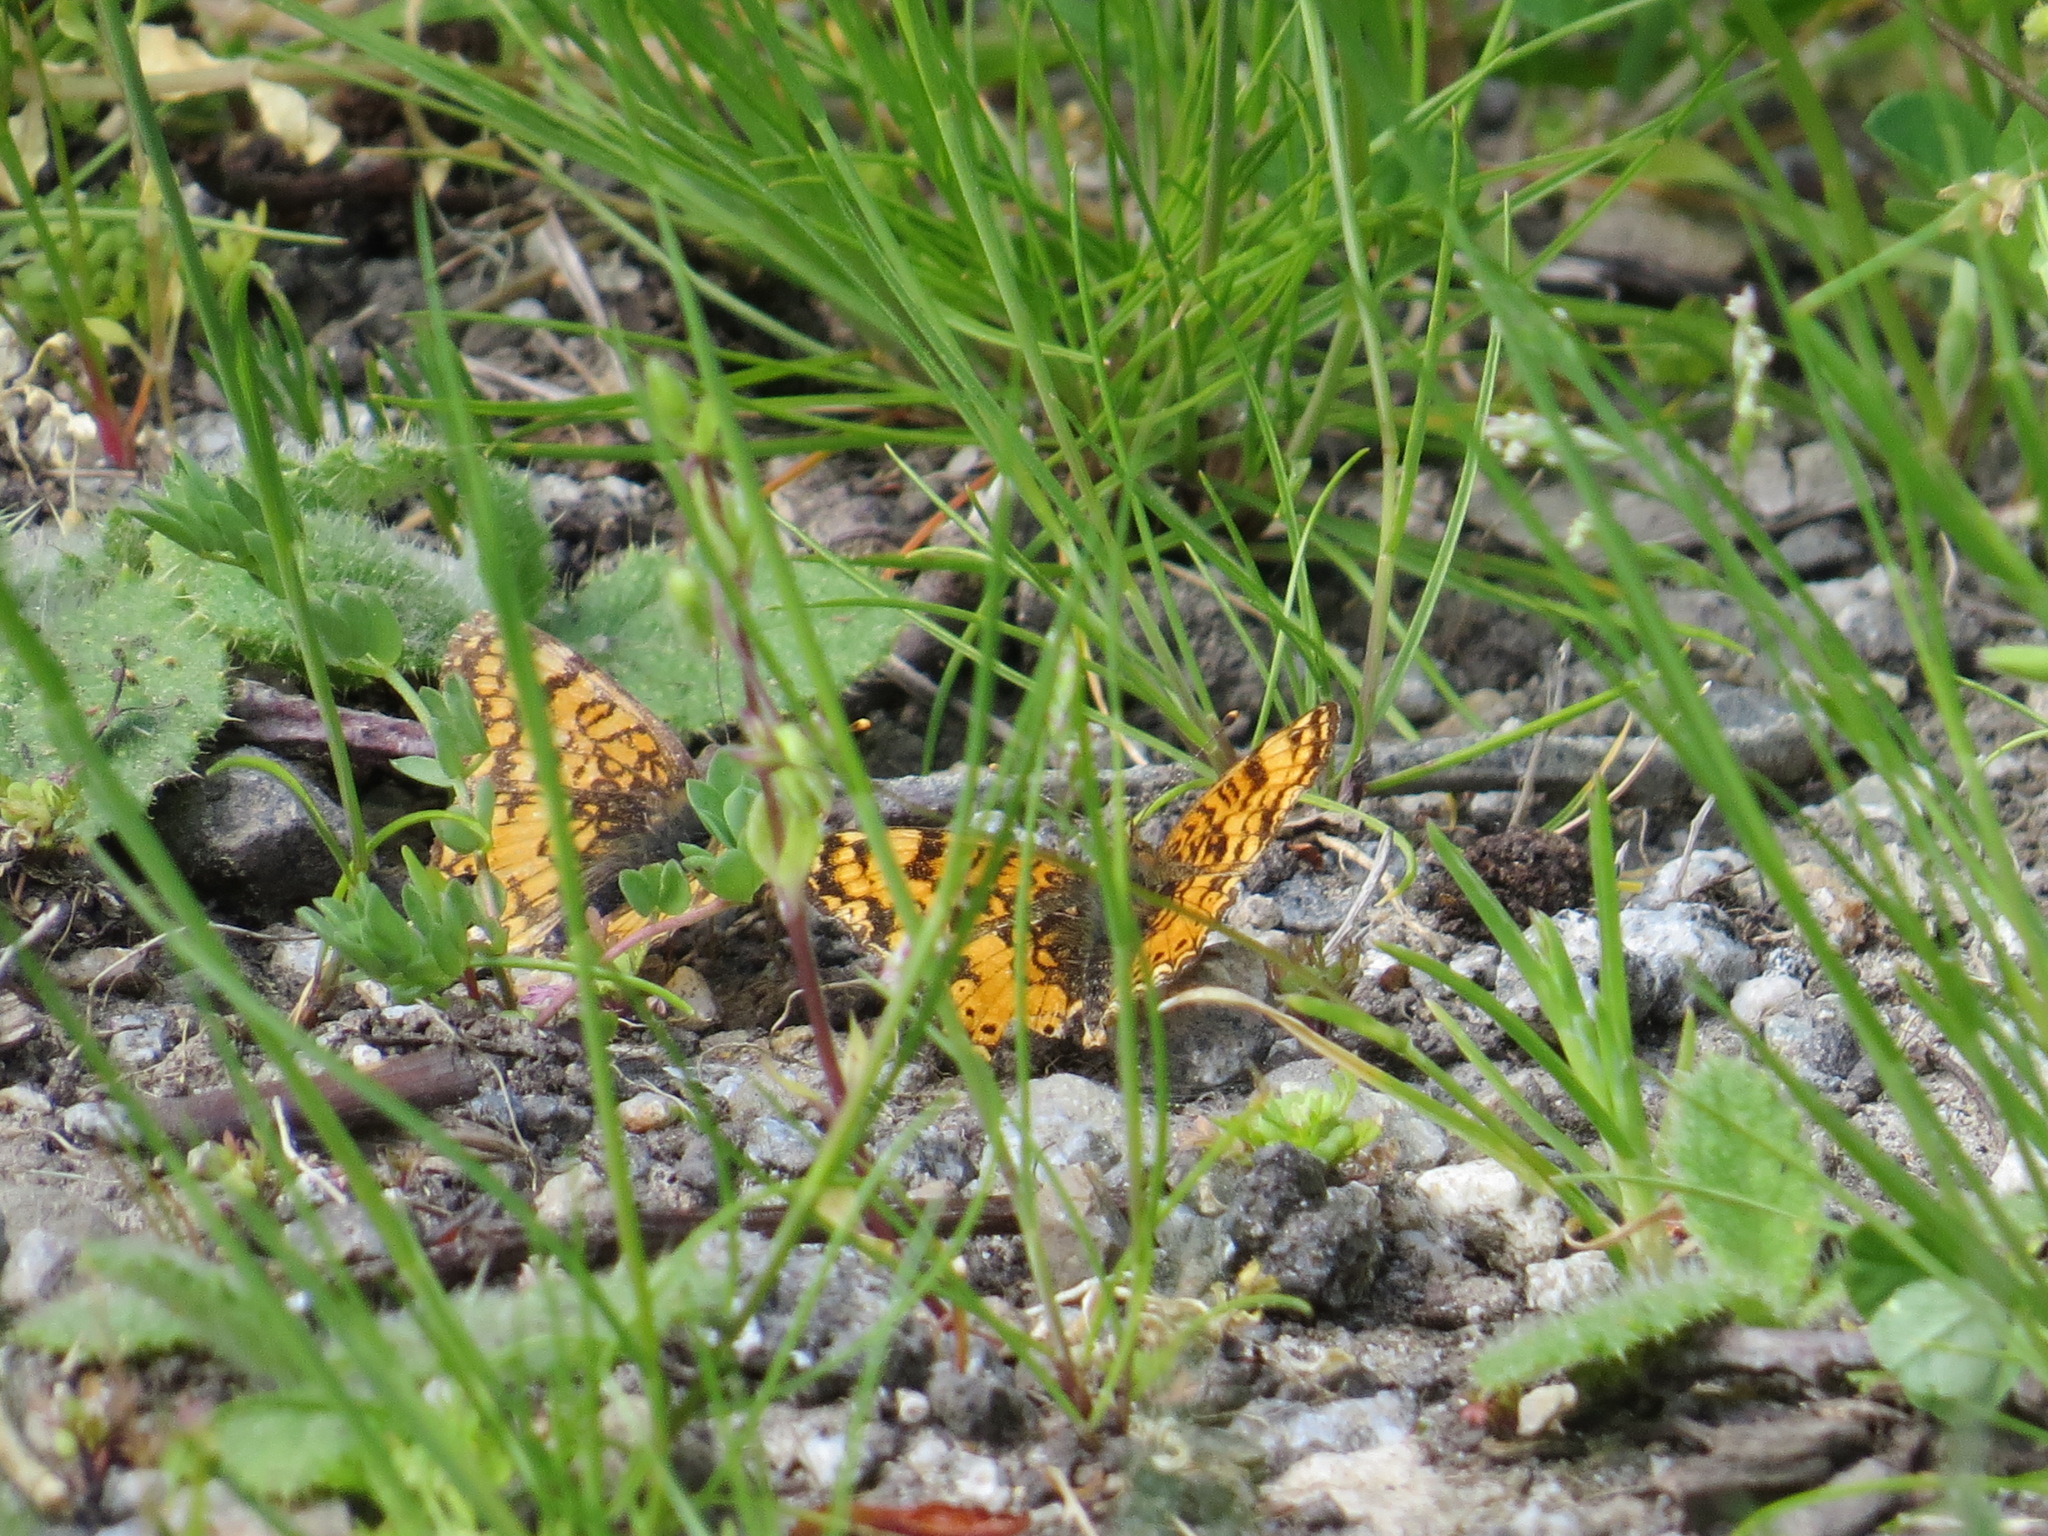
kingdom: Animalia
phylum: Arthropoda
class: Insecta
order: Lepidoptera
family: Nymphalidae
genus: Eresia
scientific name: Eresia aveyrona
